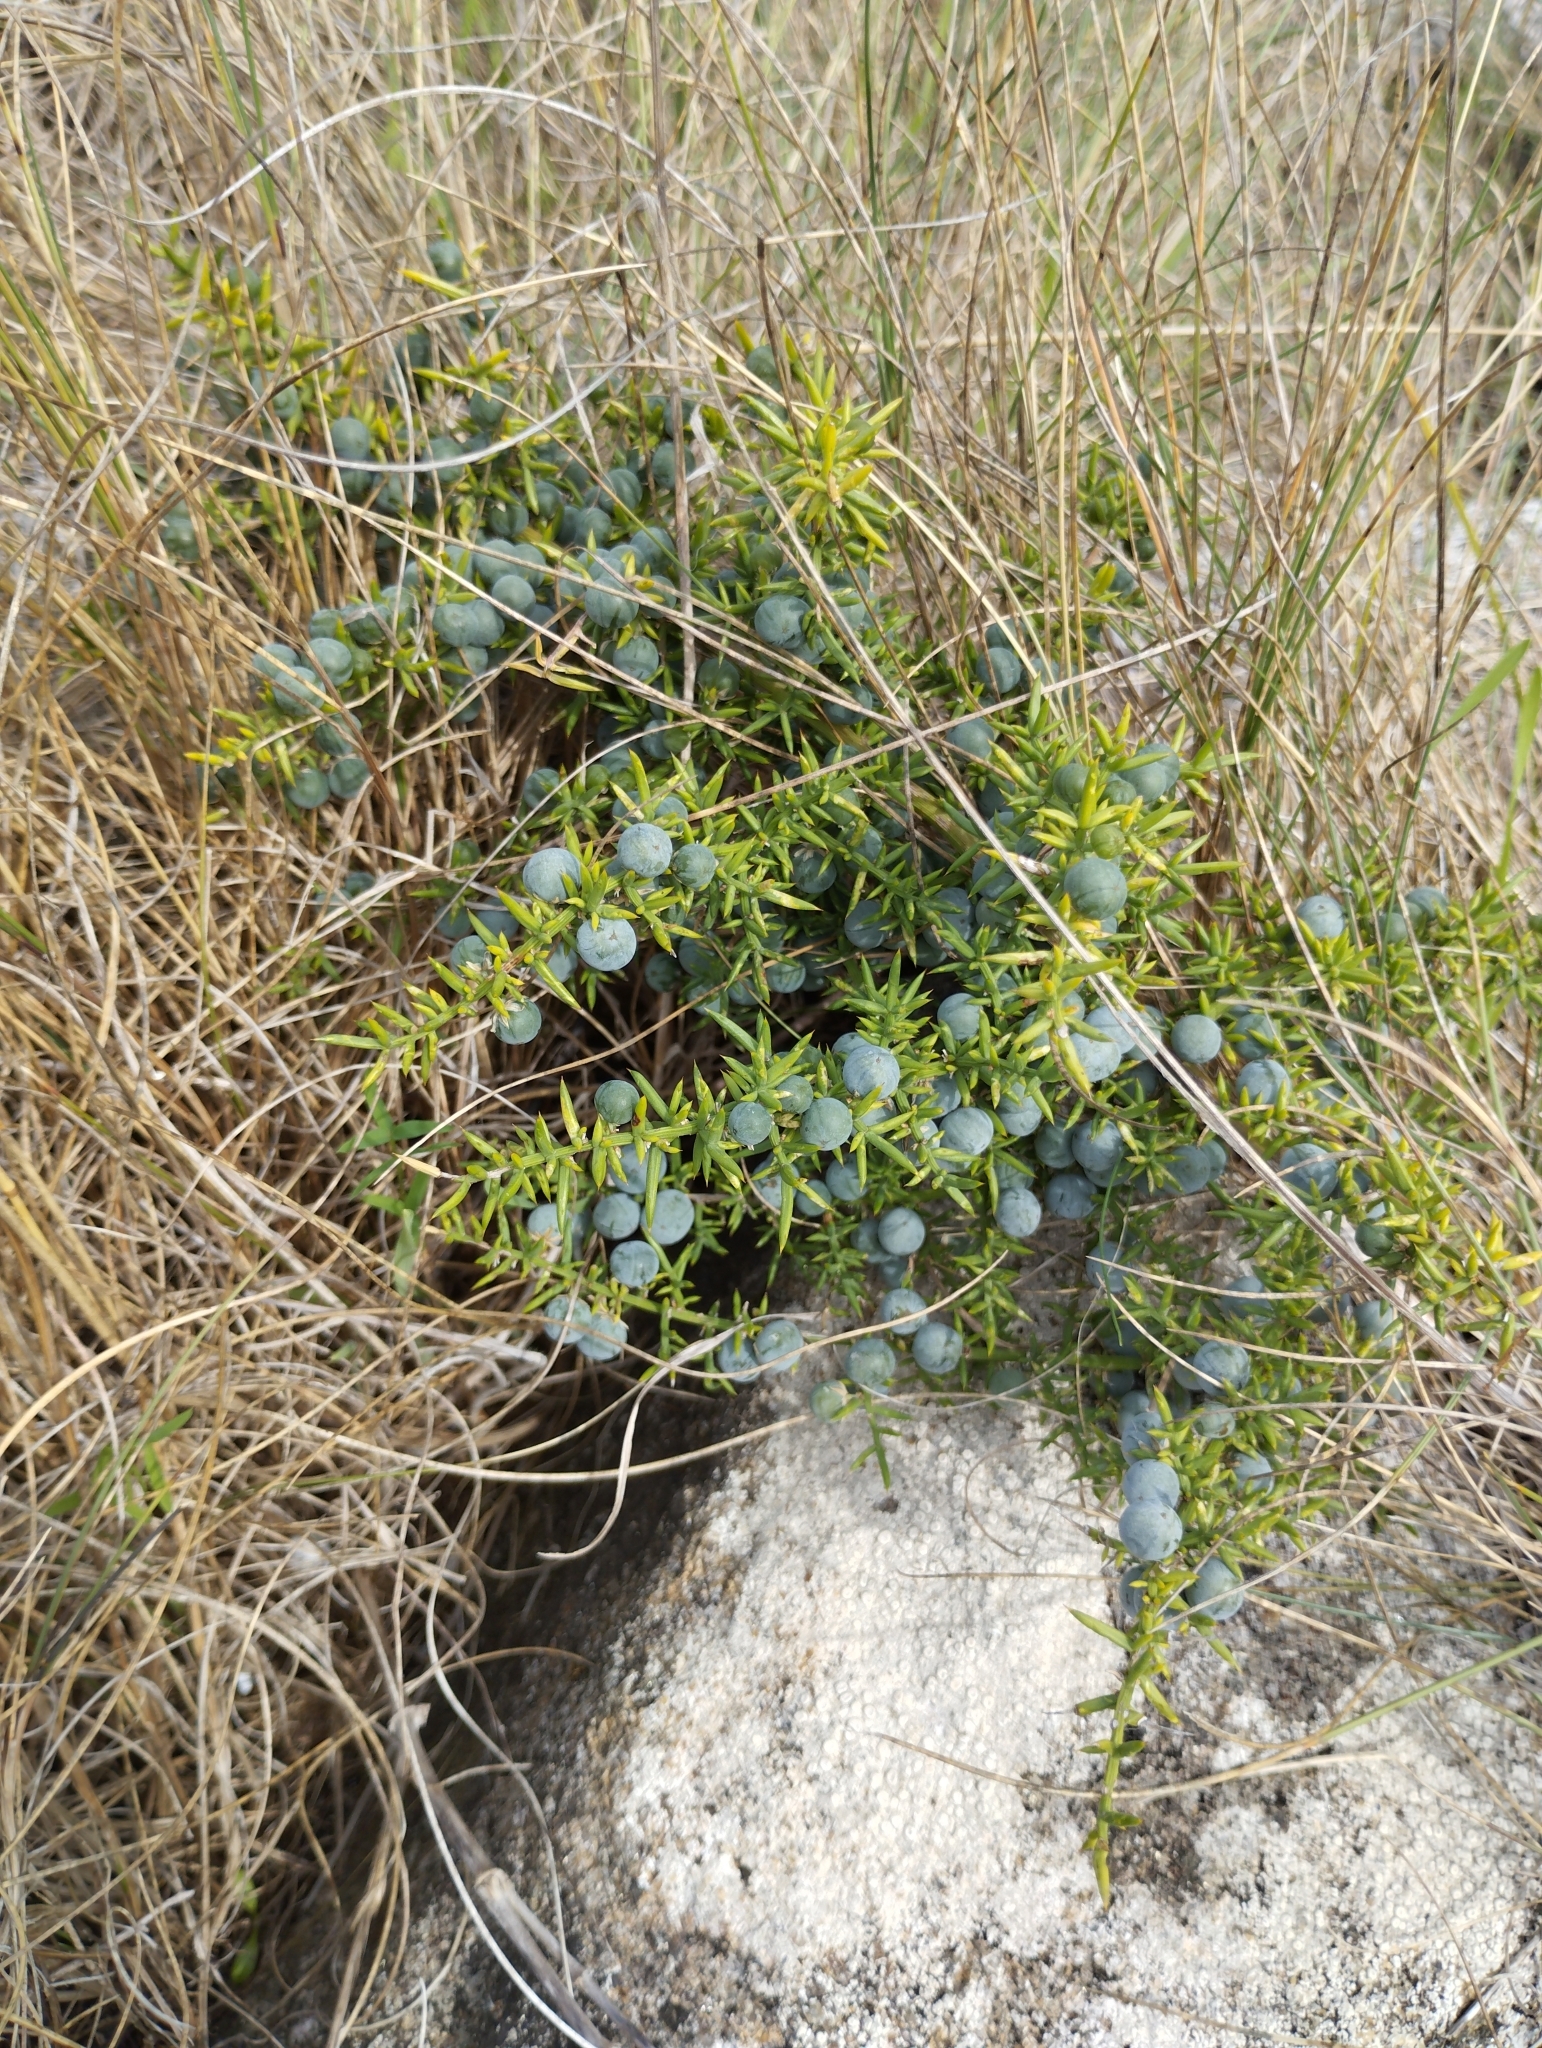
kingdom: Plantae
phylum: Tracheophyta
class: Liliopsida
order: Asparagales
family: Asparagaceae
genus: Asparagus
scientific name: Asparagus aphyllus
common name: Mediterranean asparagus
